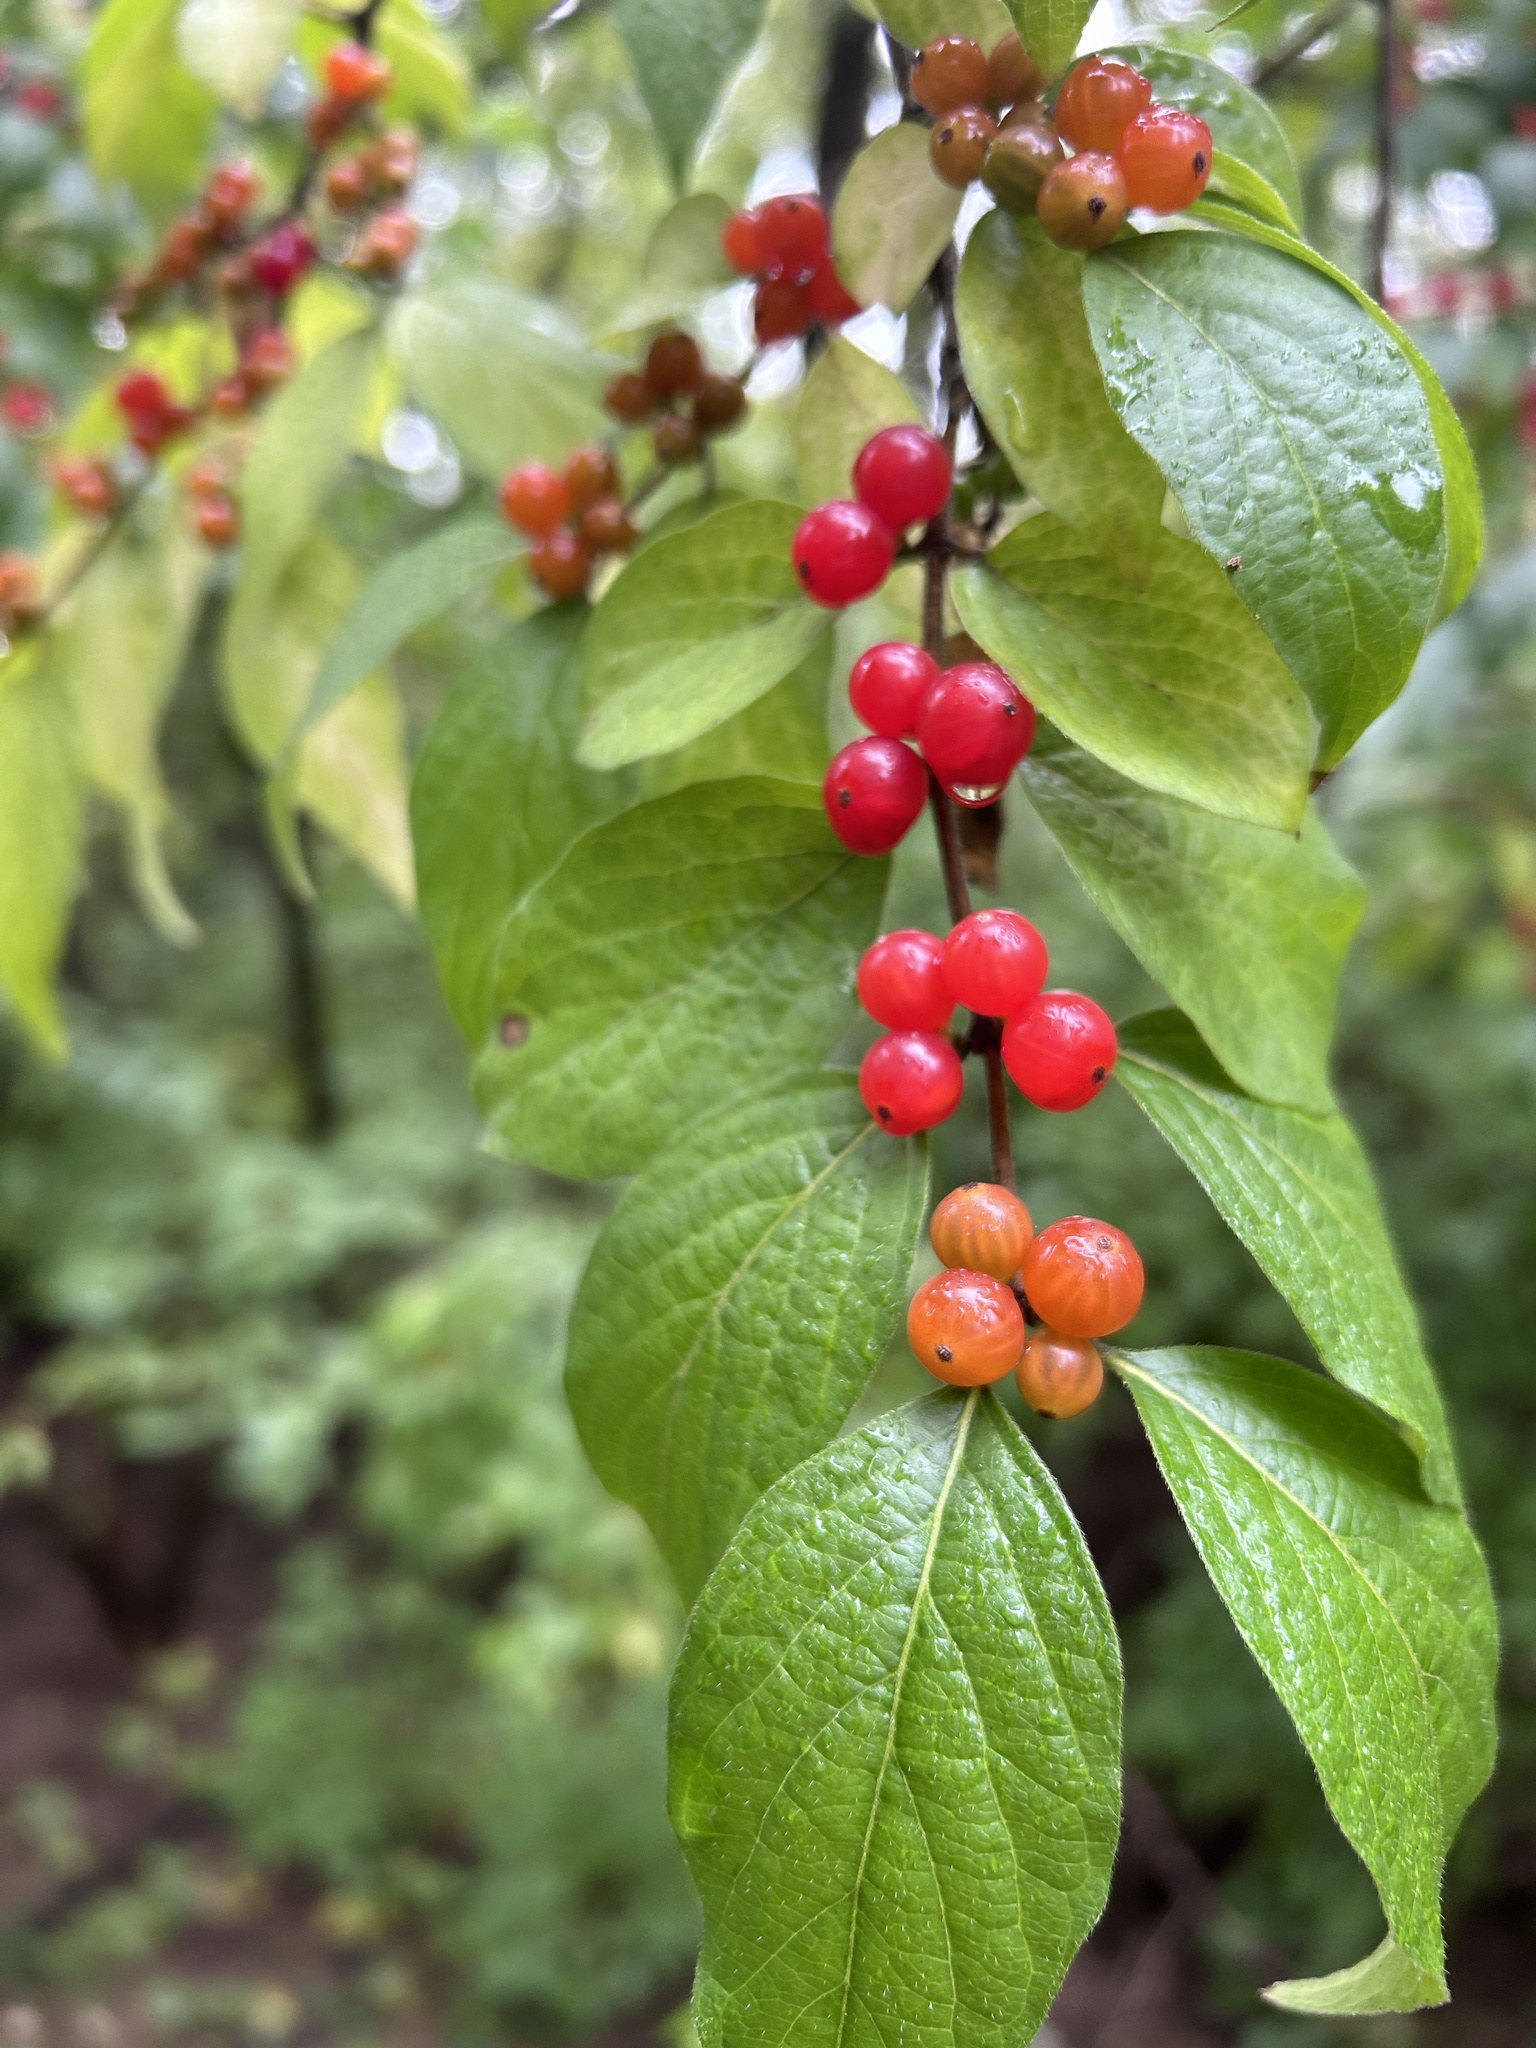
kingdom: Plantae
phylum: Tracheophyta
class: Magnoliopsida
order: Dipsacales
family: Caprifoliaceae
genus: Lonicera
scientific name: Lonicera maackii
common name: Amur honeysuckle
